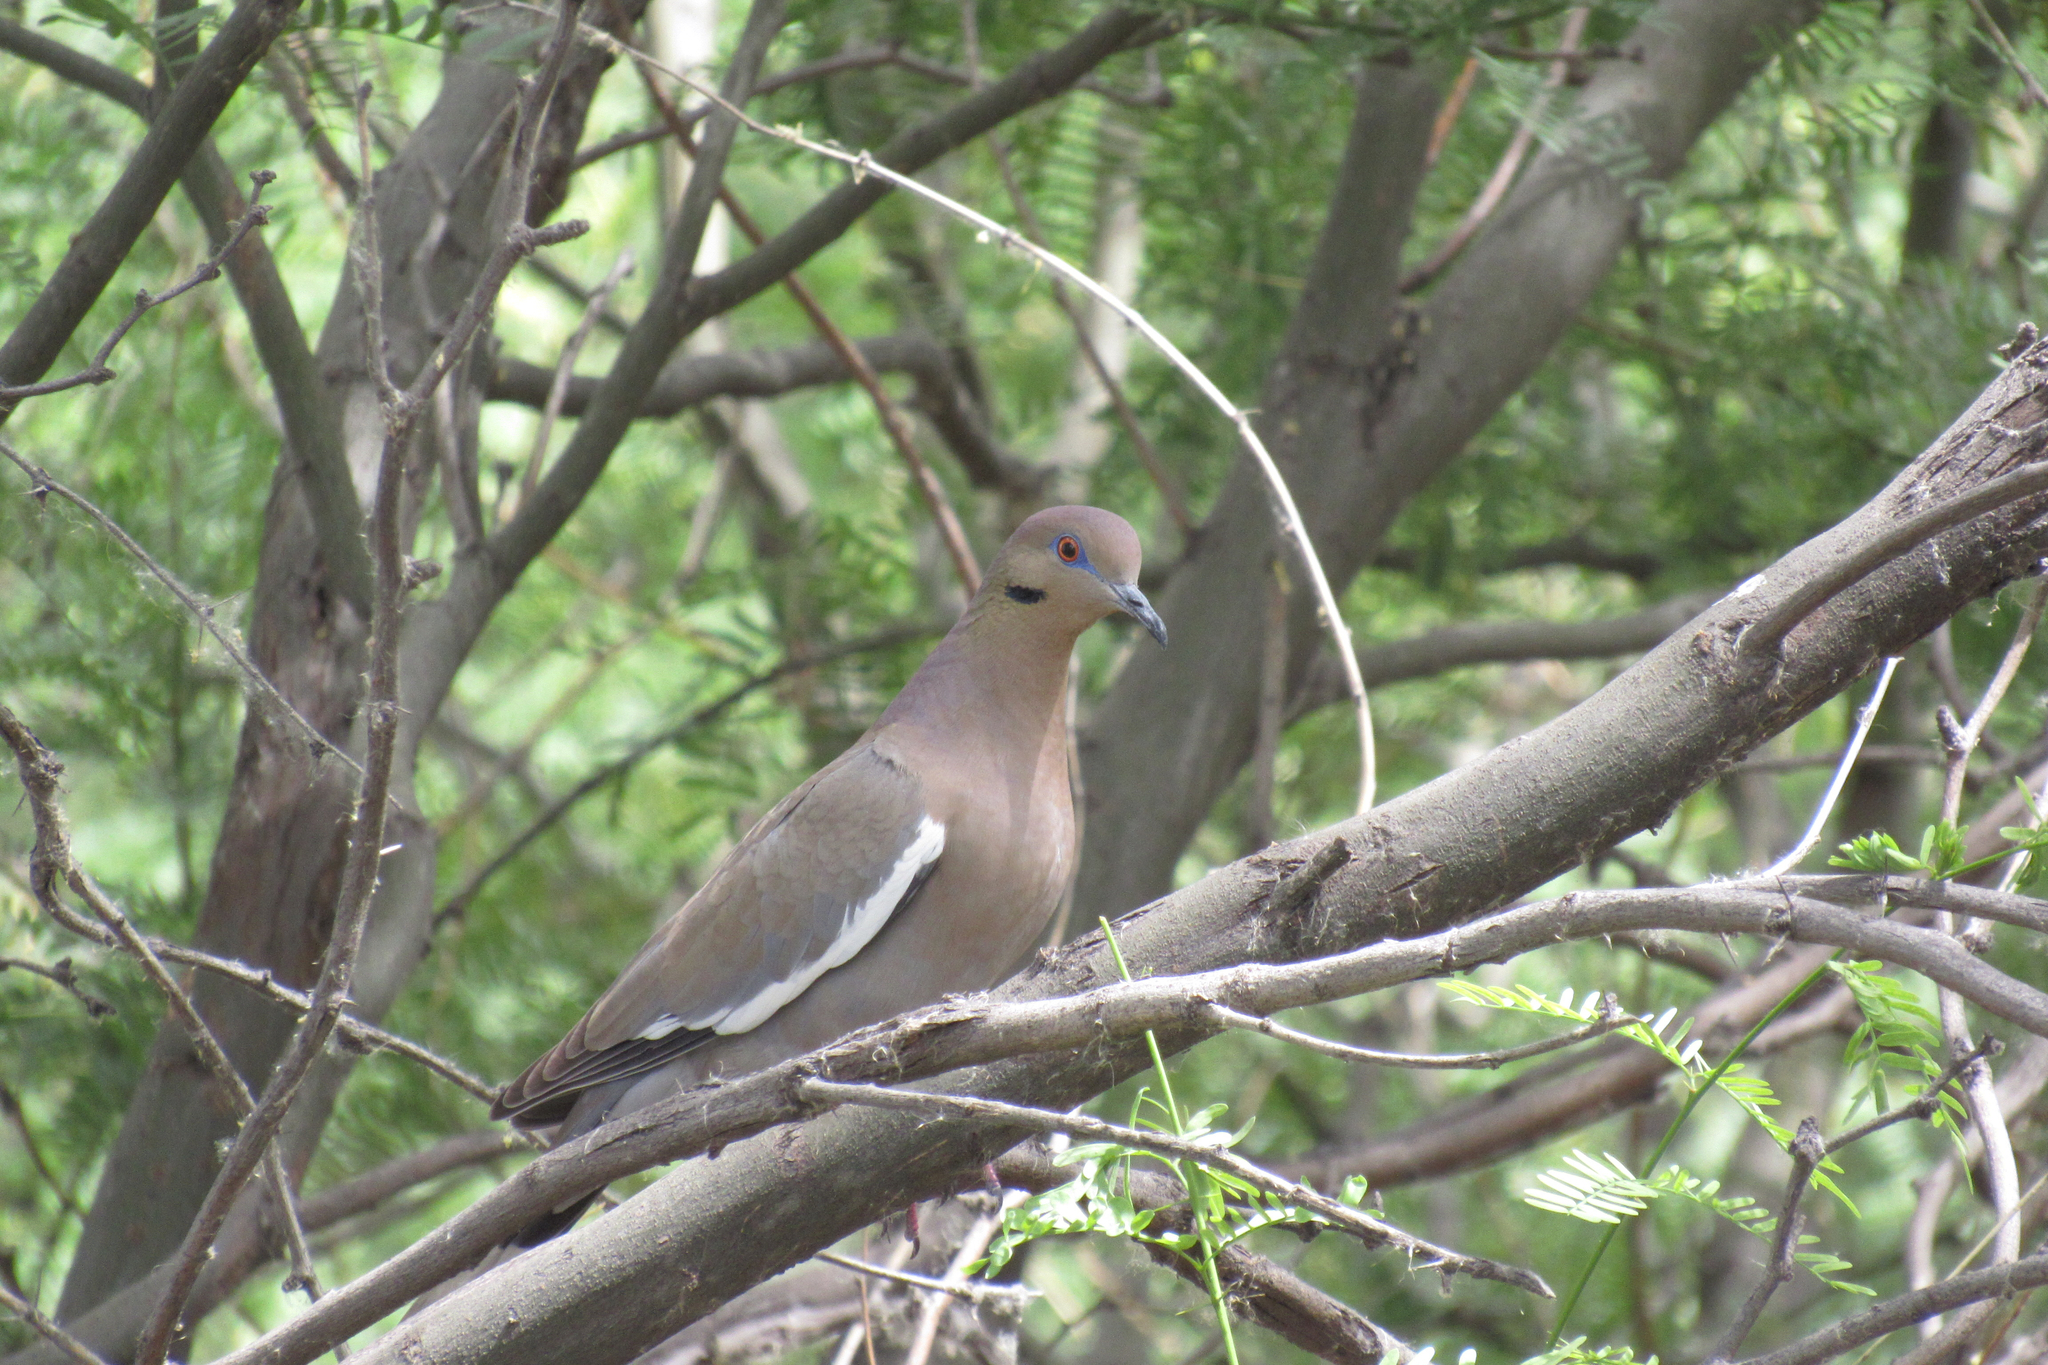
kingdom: Animalia
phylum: Chordata
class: Aves
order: Columbiformes
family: Columbidae
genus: Zenaida
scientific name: Zenaida asiatica
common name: White-winged dove
